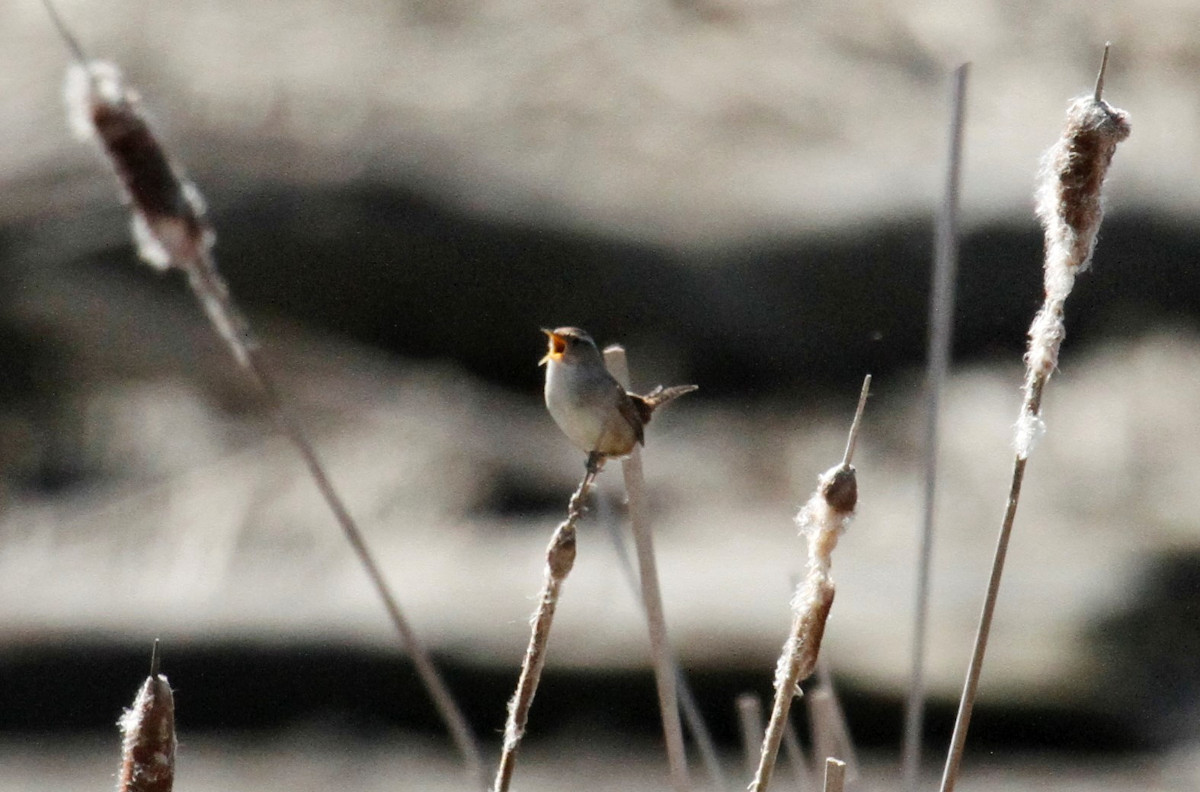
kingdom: Animalia
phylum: Chordata
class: Aves
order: Passeriformes
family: Troglodytidae
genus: Cistothorus
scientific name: Cistothorus palustris
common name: Marsh wren
